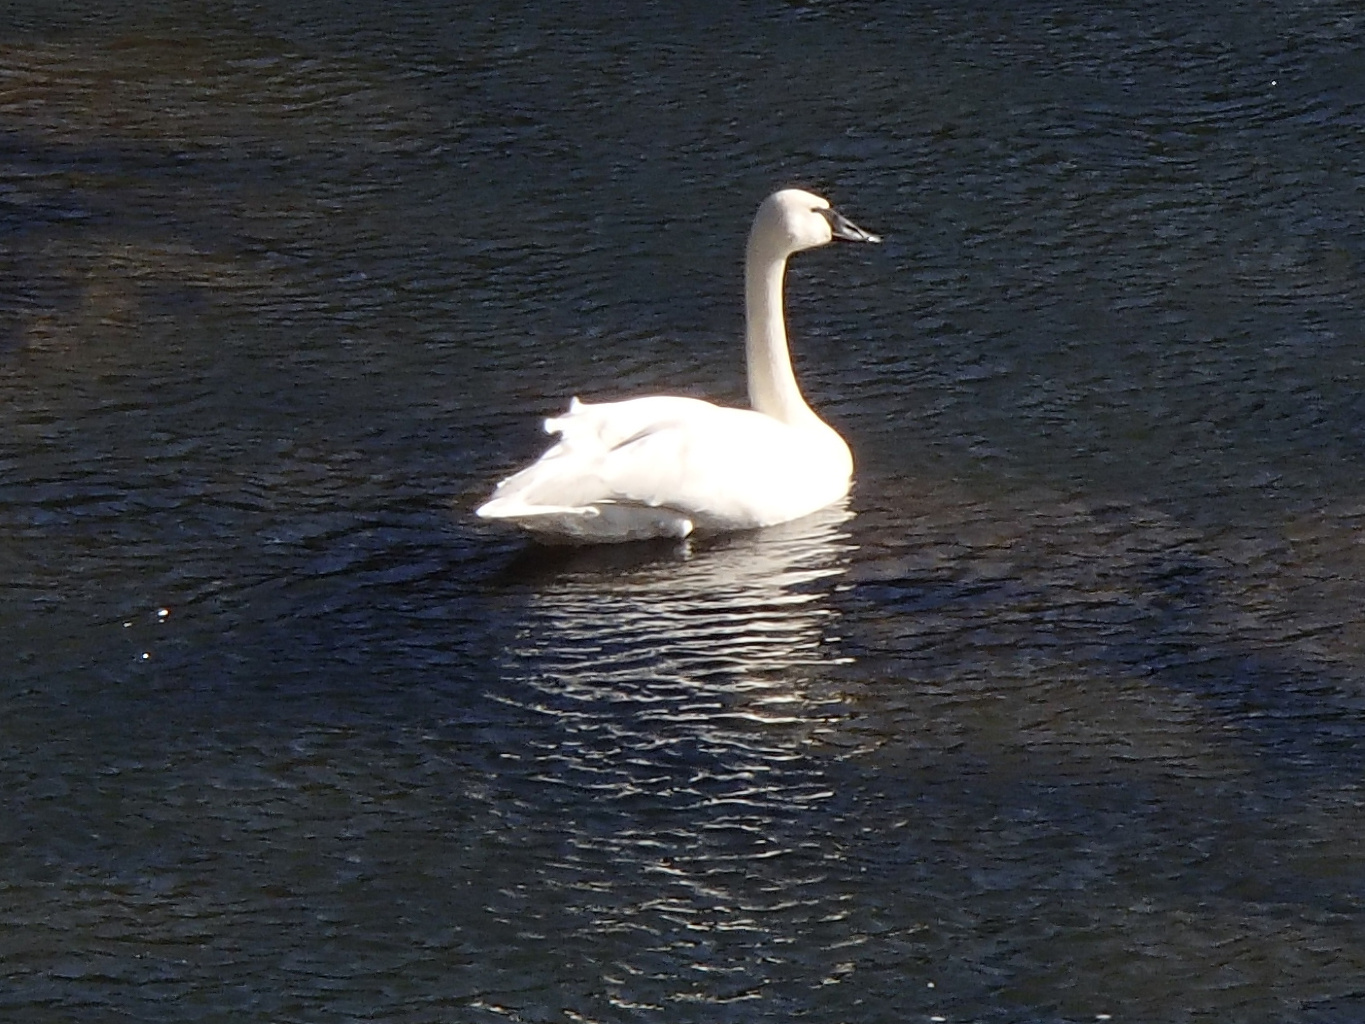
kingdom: Animalia
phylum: Chordata
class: Aves
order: Anseriformes
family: Anatidae
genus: Cygnus
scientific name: Cygnus buccinator
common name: Trumpeter swan
